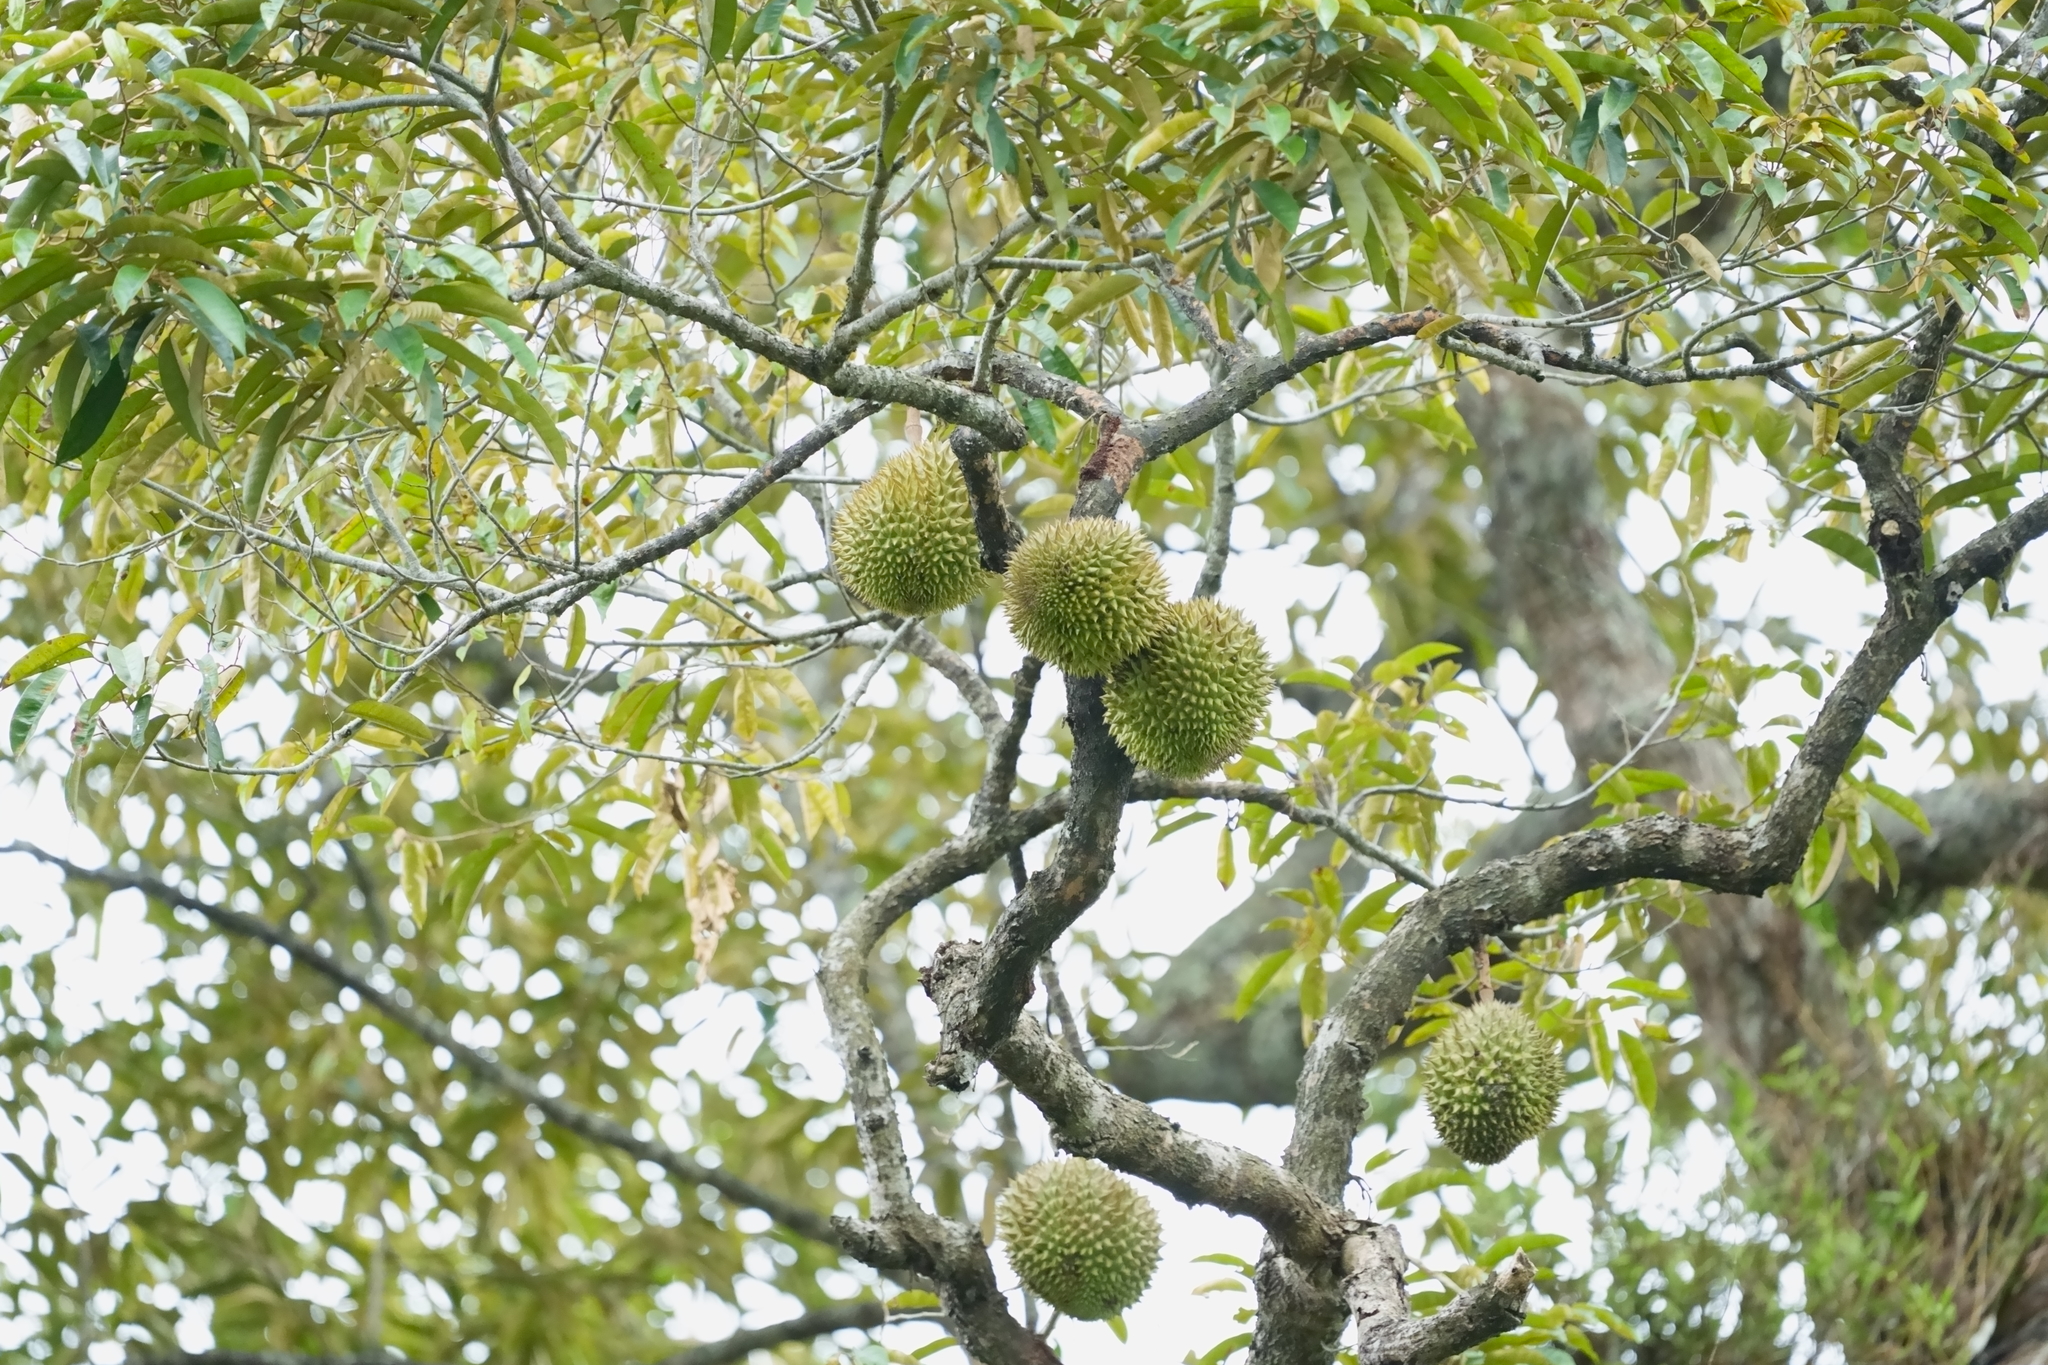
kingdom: Plantae
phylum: Tracheophyta
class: Magnoliopsida
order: Malvales
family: Malvaceae
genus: Durio
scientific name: Durio zibethinus
